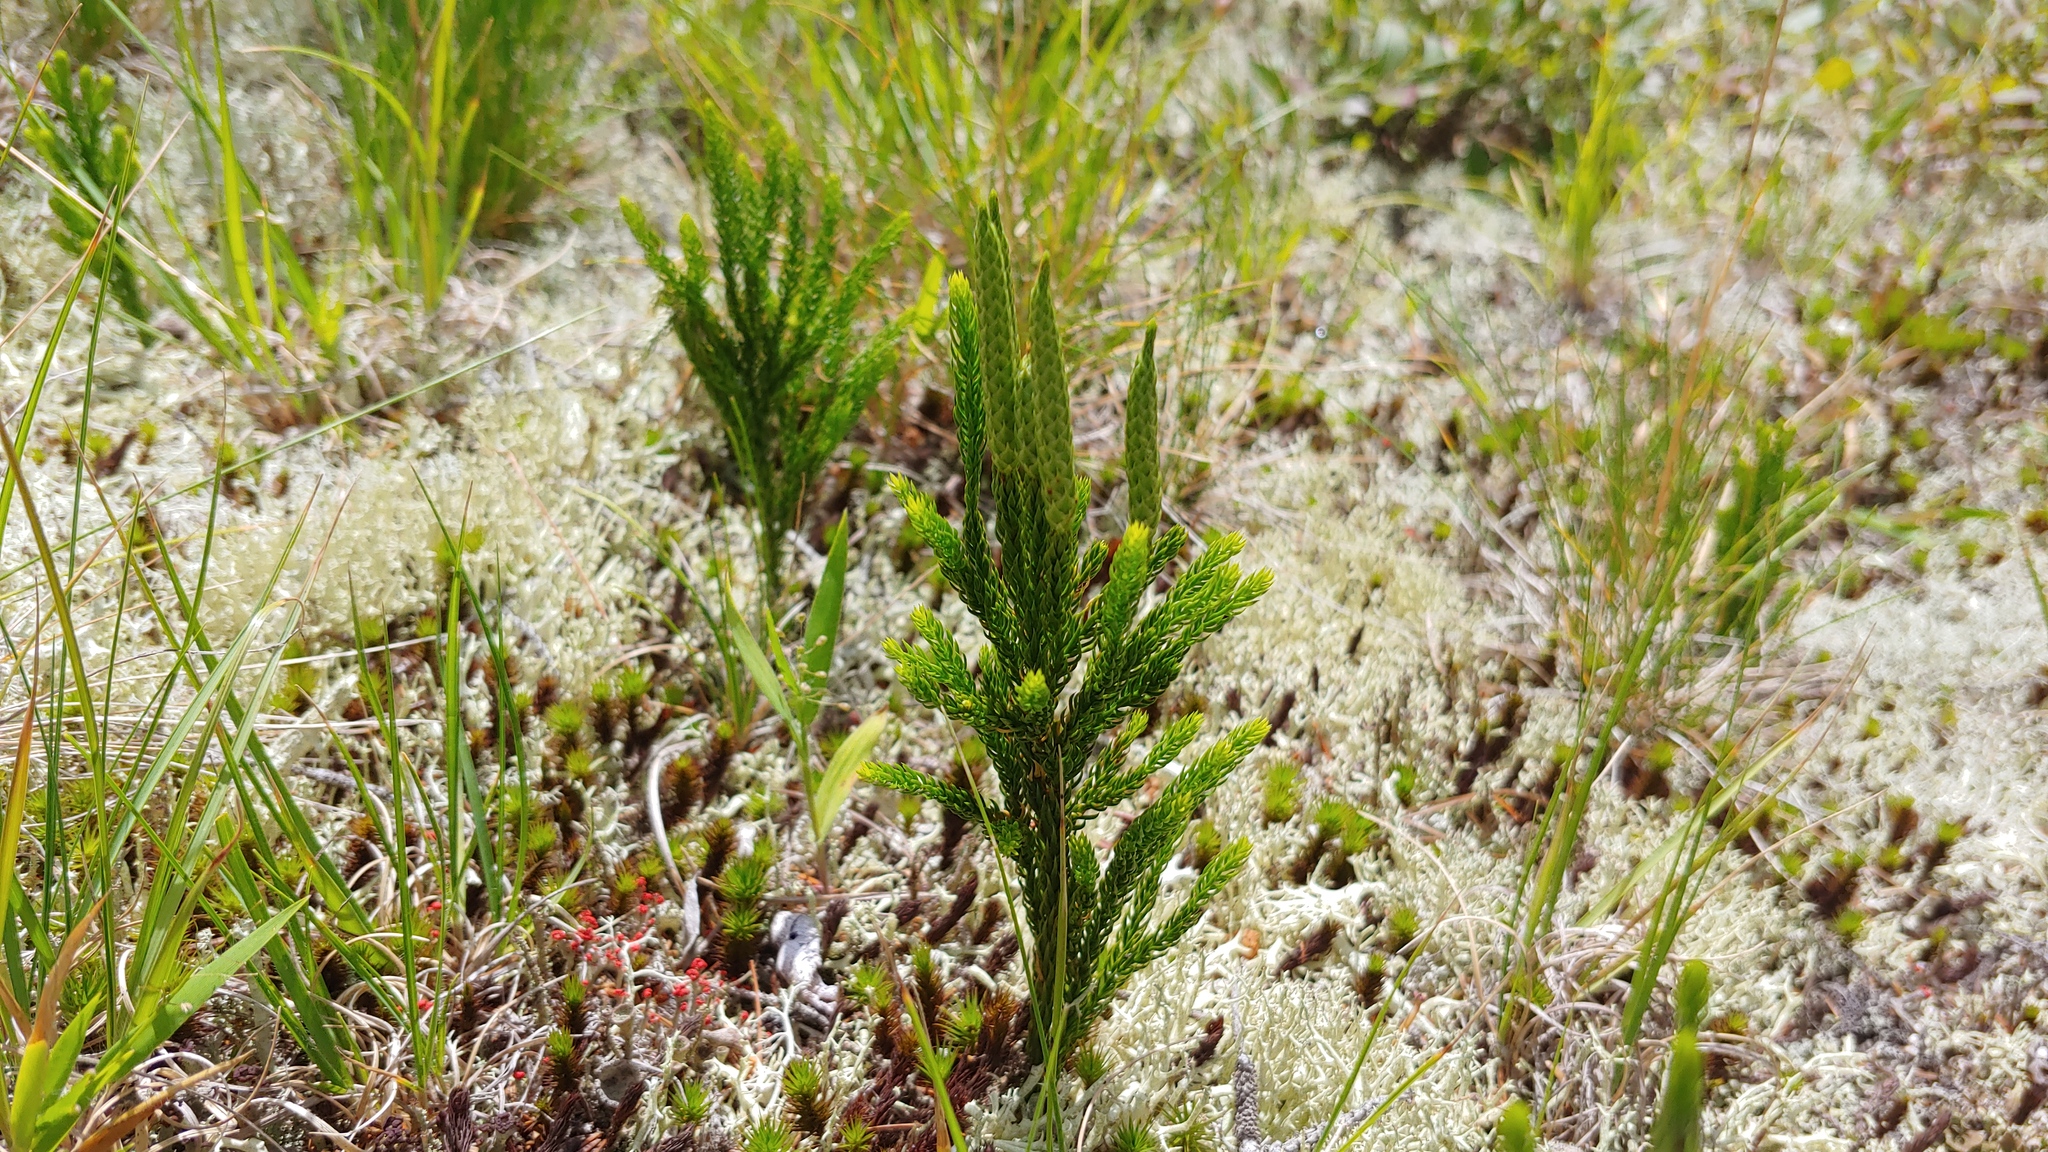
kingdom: Plantae
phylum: Tracheophyta
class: Lycopodiopsida
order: Lycopodiales
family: Lycopodiaceae
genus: Dendrolycopodium
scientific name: Dendrolycopodium hickeyi
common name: Hickey's clubmoss
